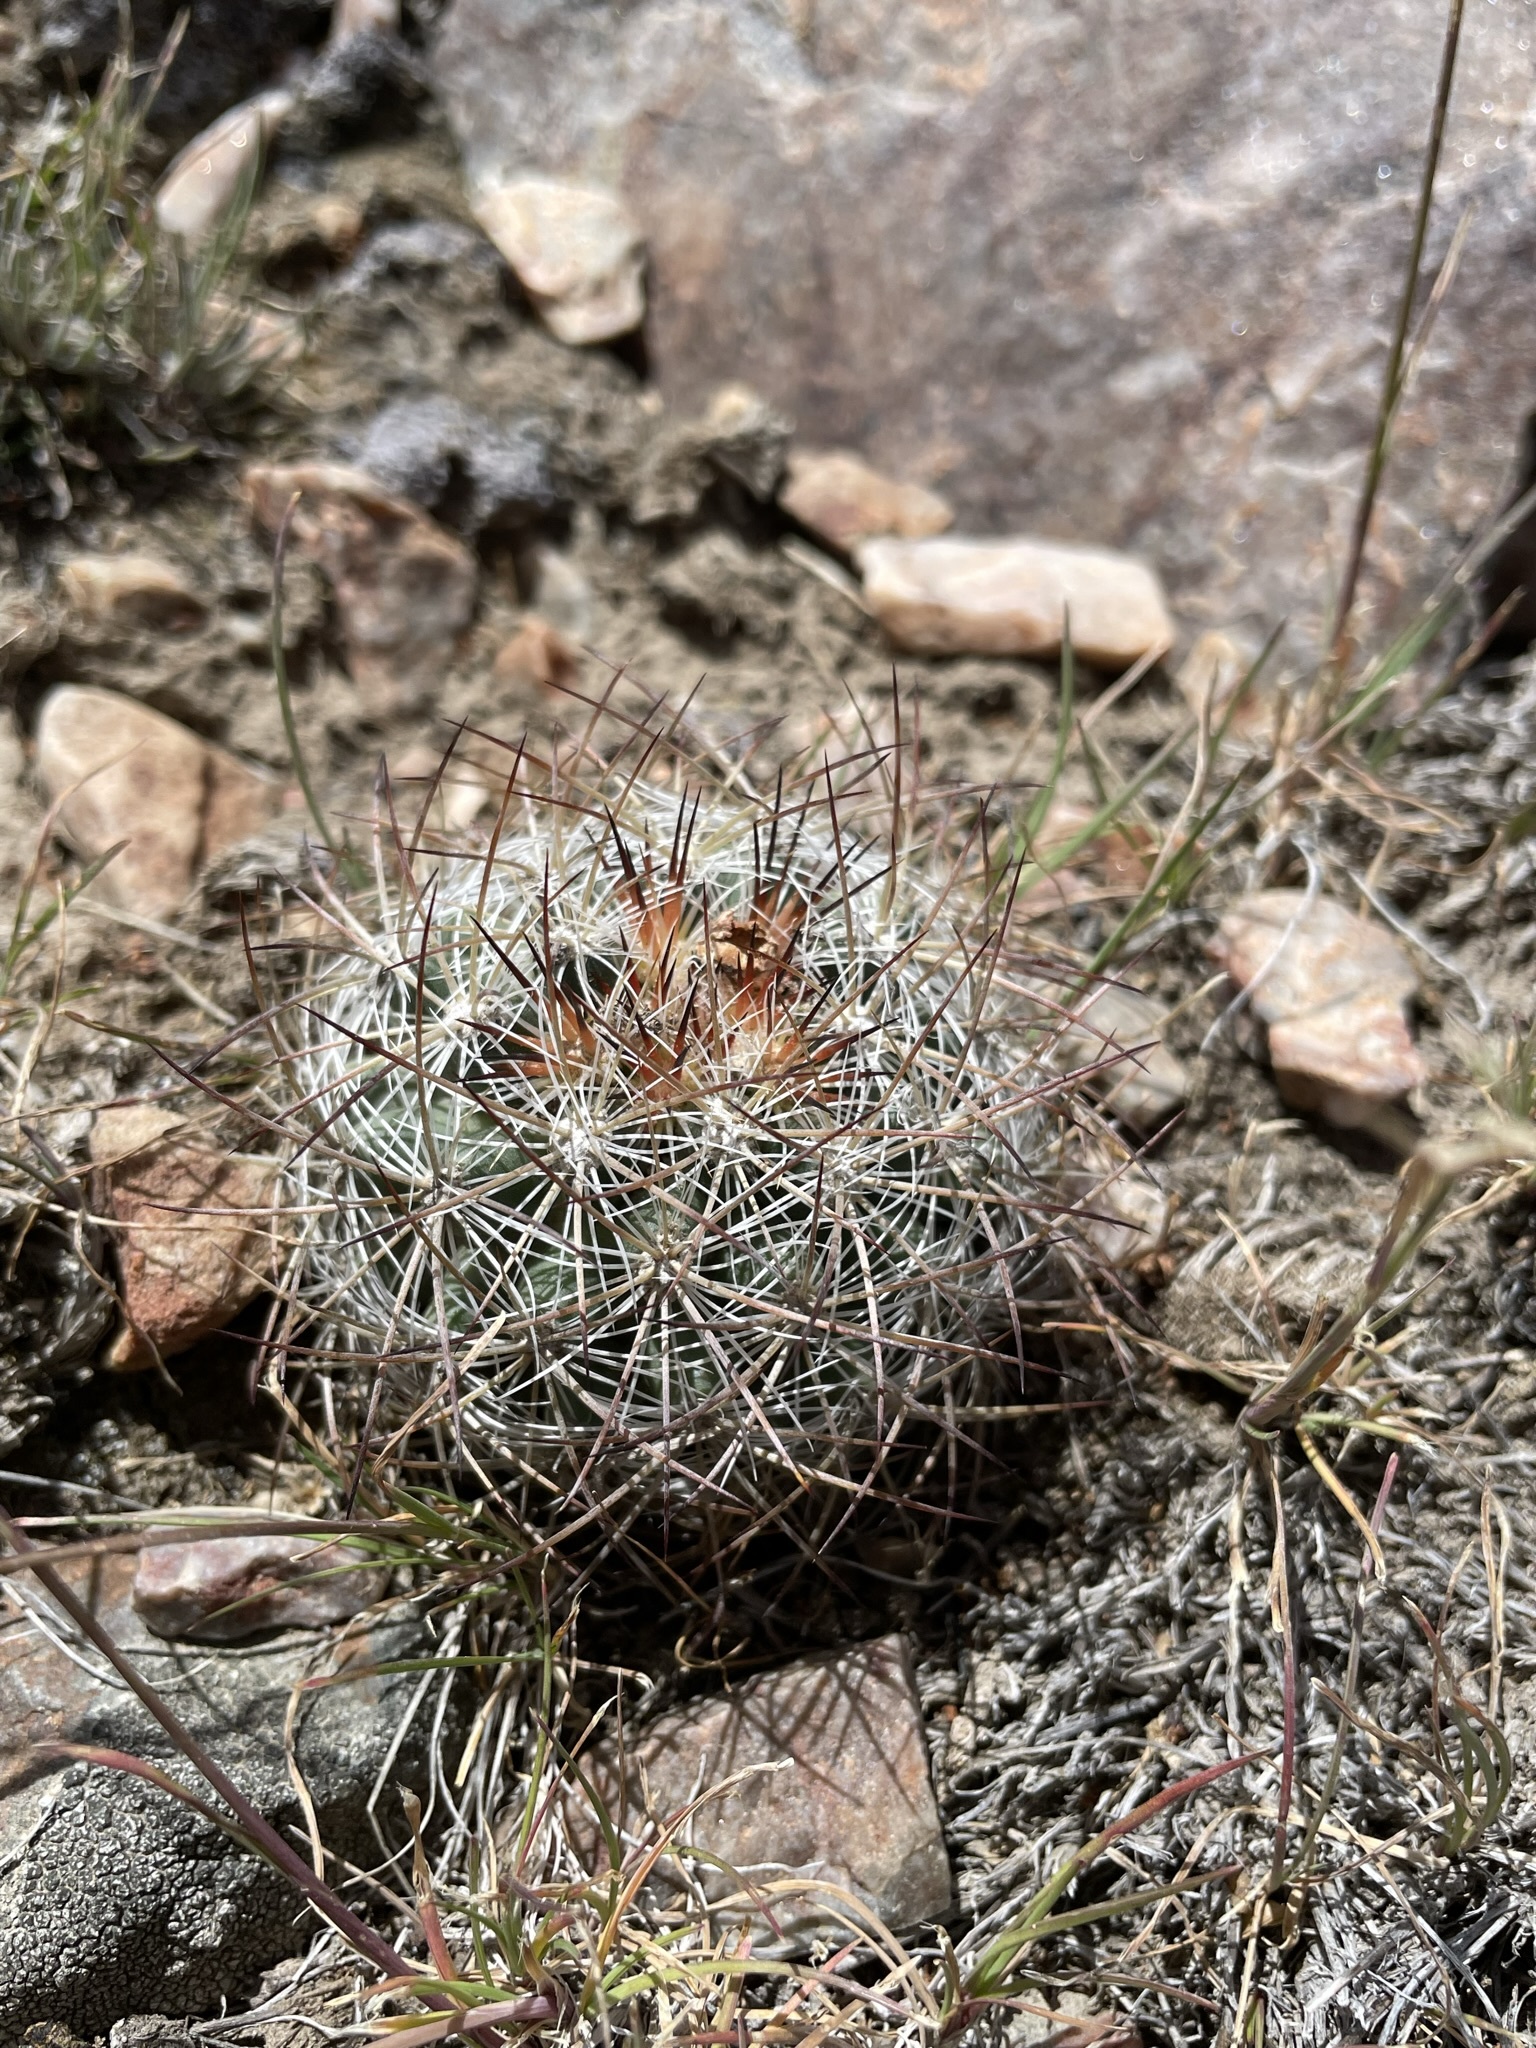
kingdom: Plantae
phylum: Tracheophyta
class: Magnoliopsida
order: Caryophyllales
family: Cactaceae
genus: Pediocactus
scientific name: Pediocactus simpsonii
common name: Simpson's hedgehog cactus
